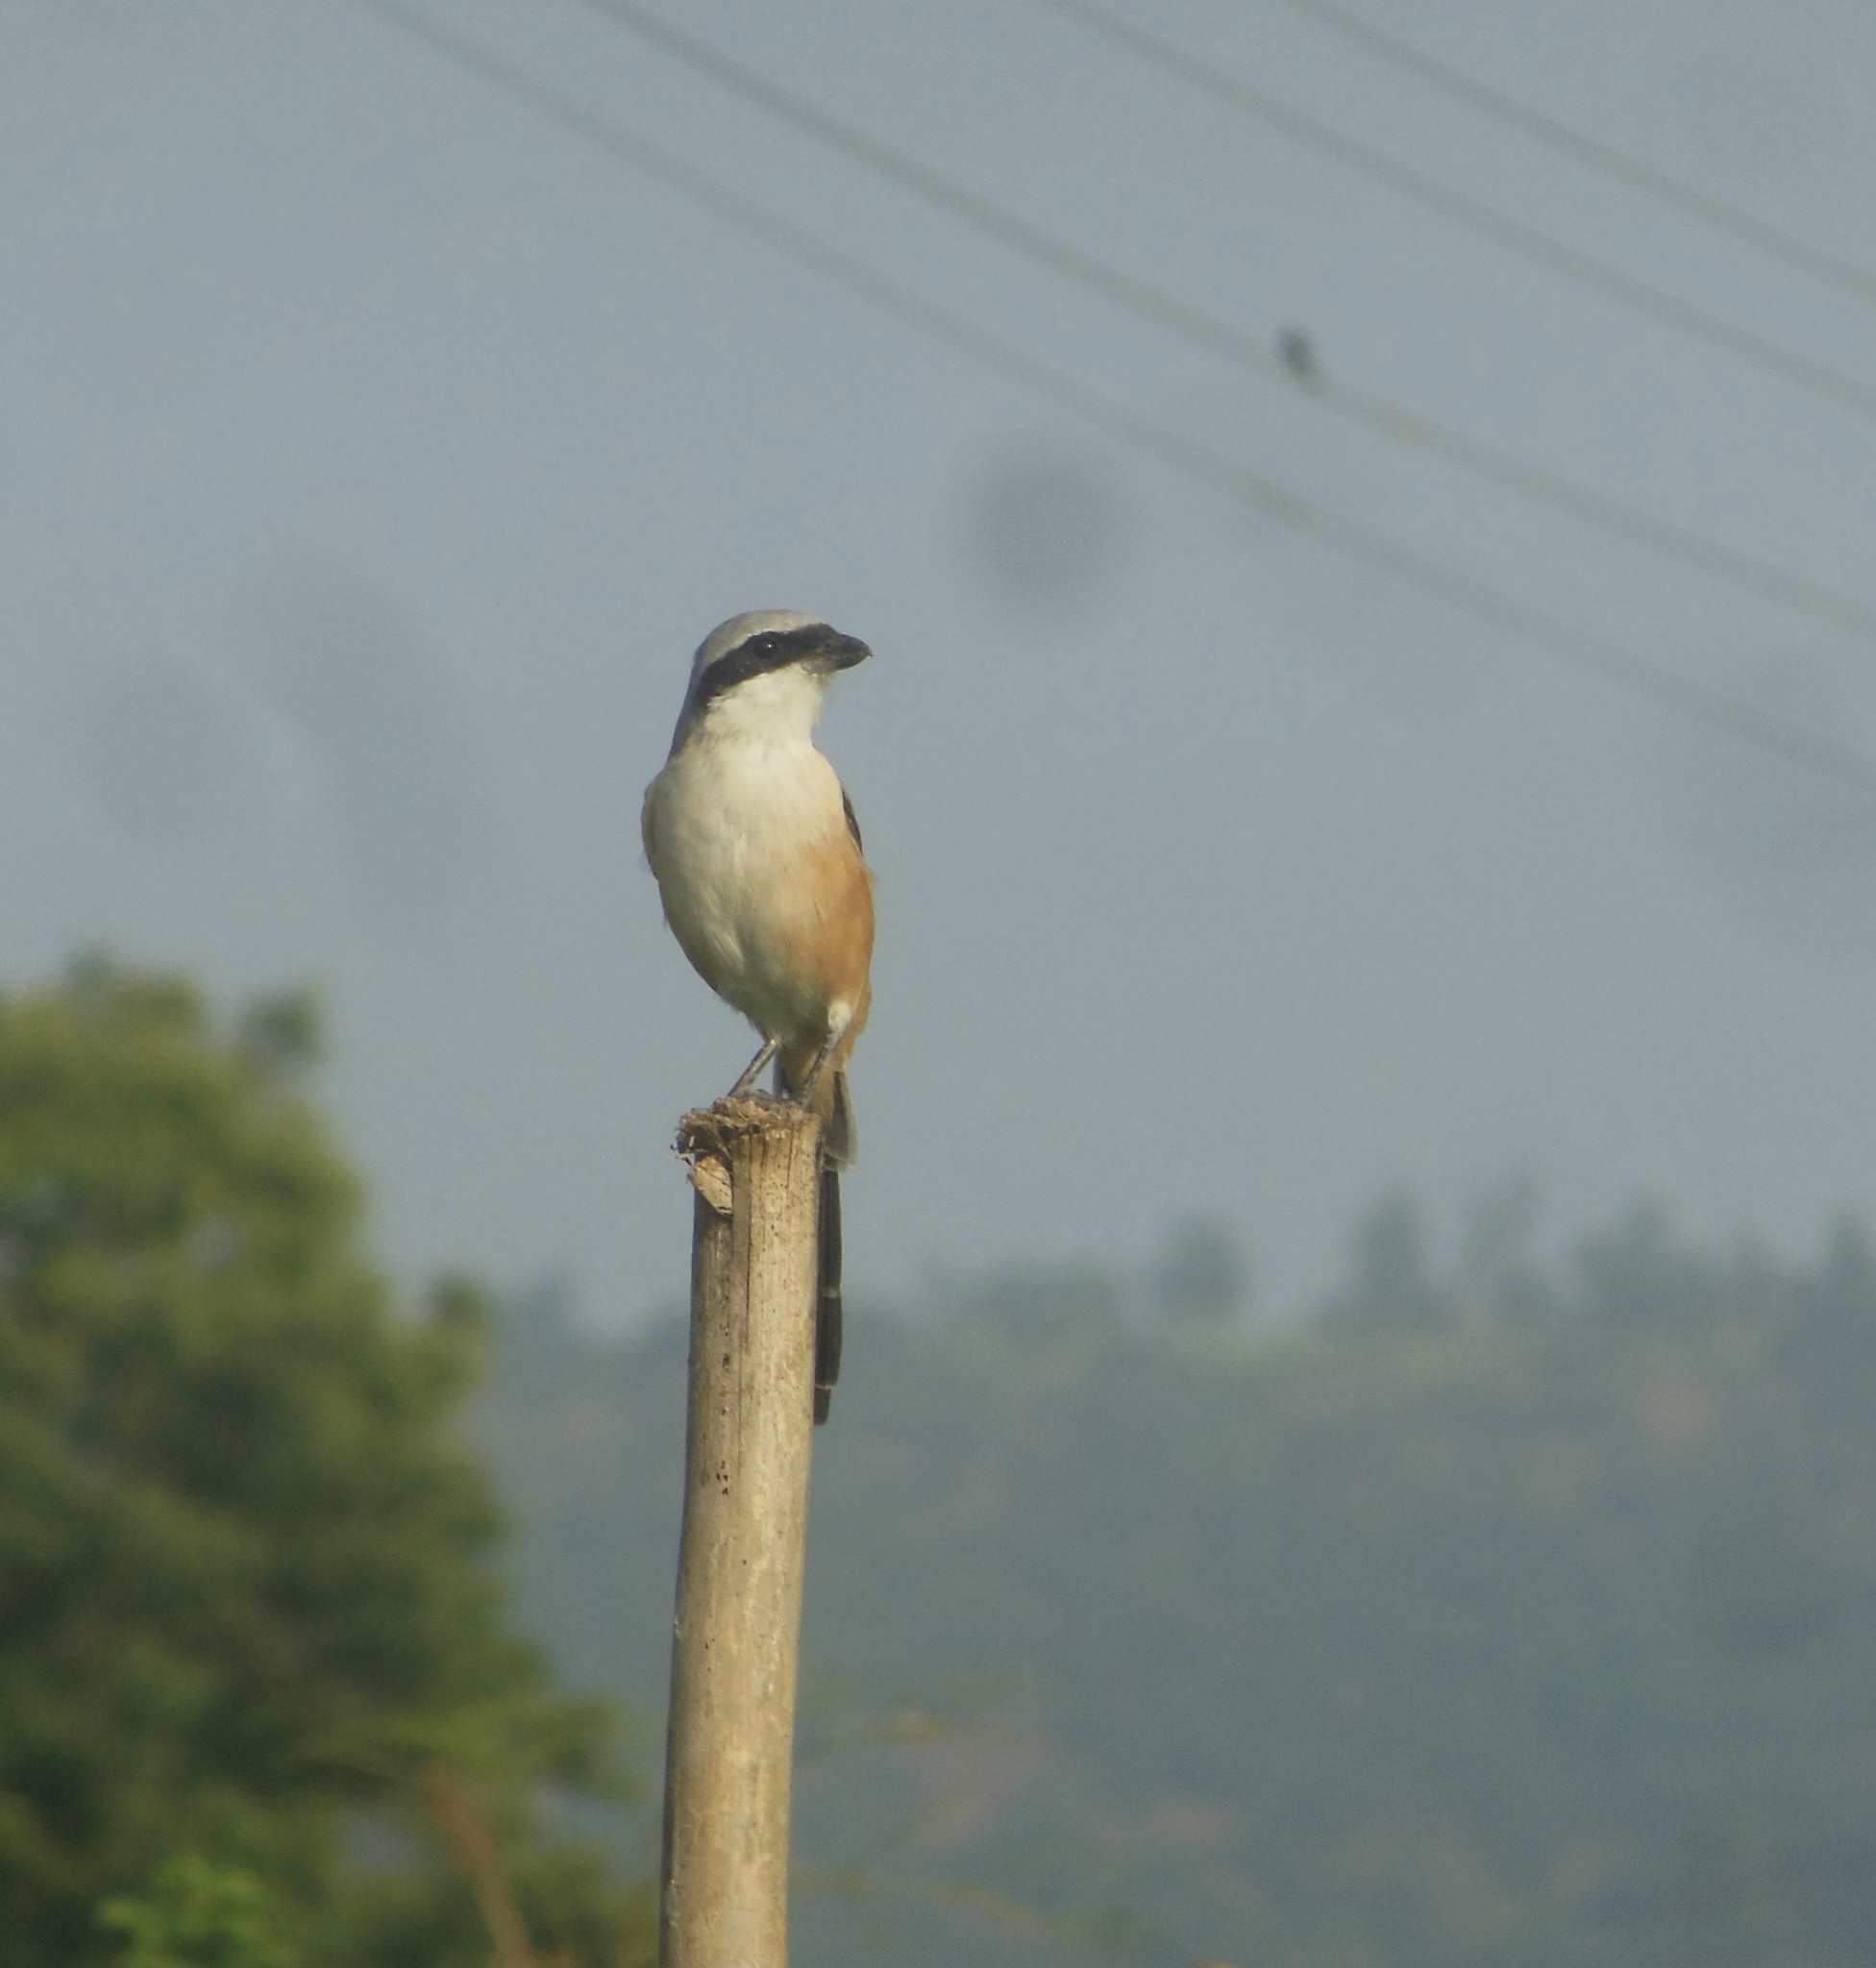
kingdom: Animalia
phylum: Chordata
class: Aves
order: Passeriformes
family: Laniidae
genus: Lanius
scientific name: Lanius schach
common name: Long-tailed shrike
